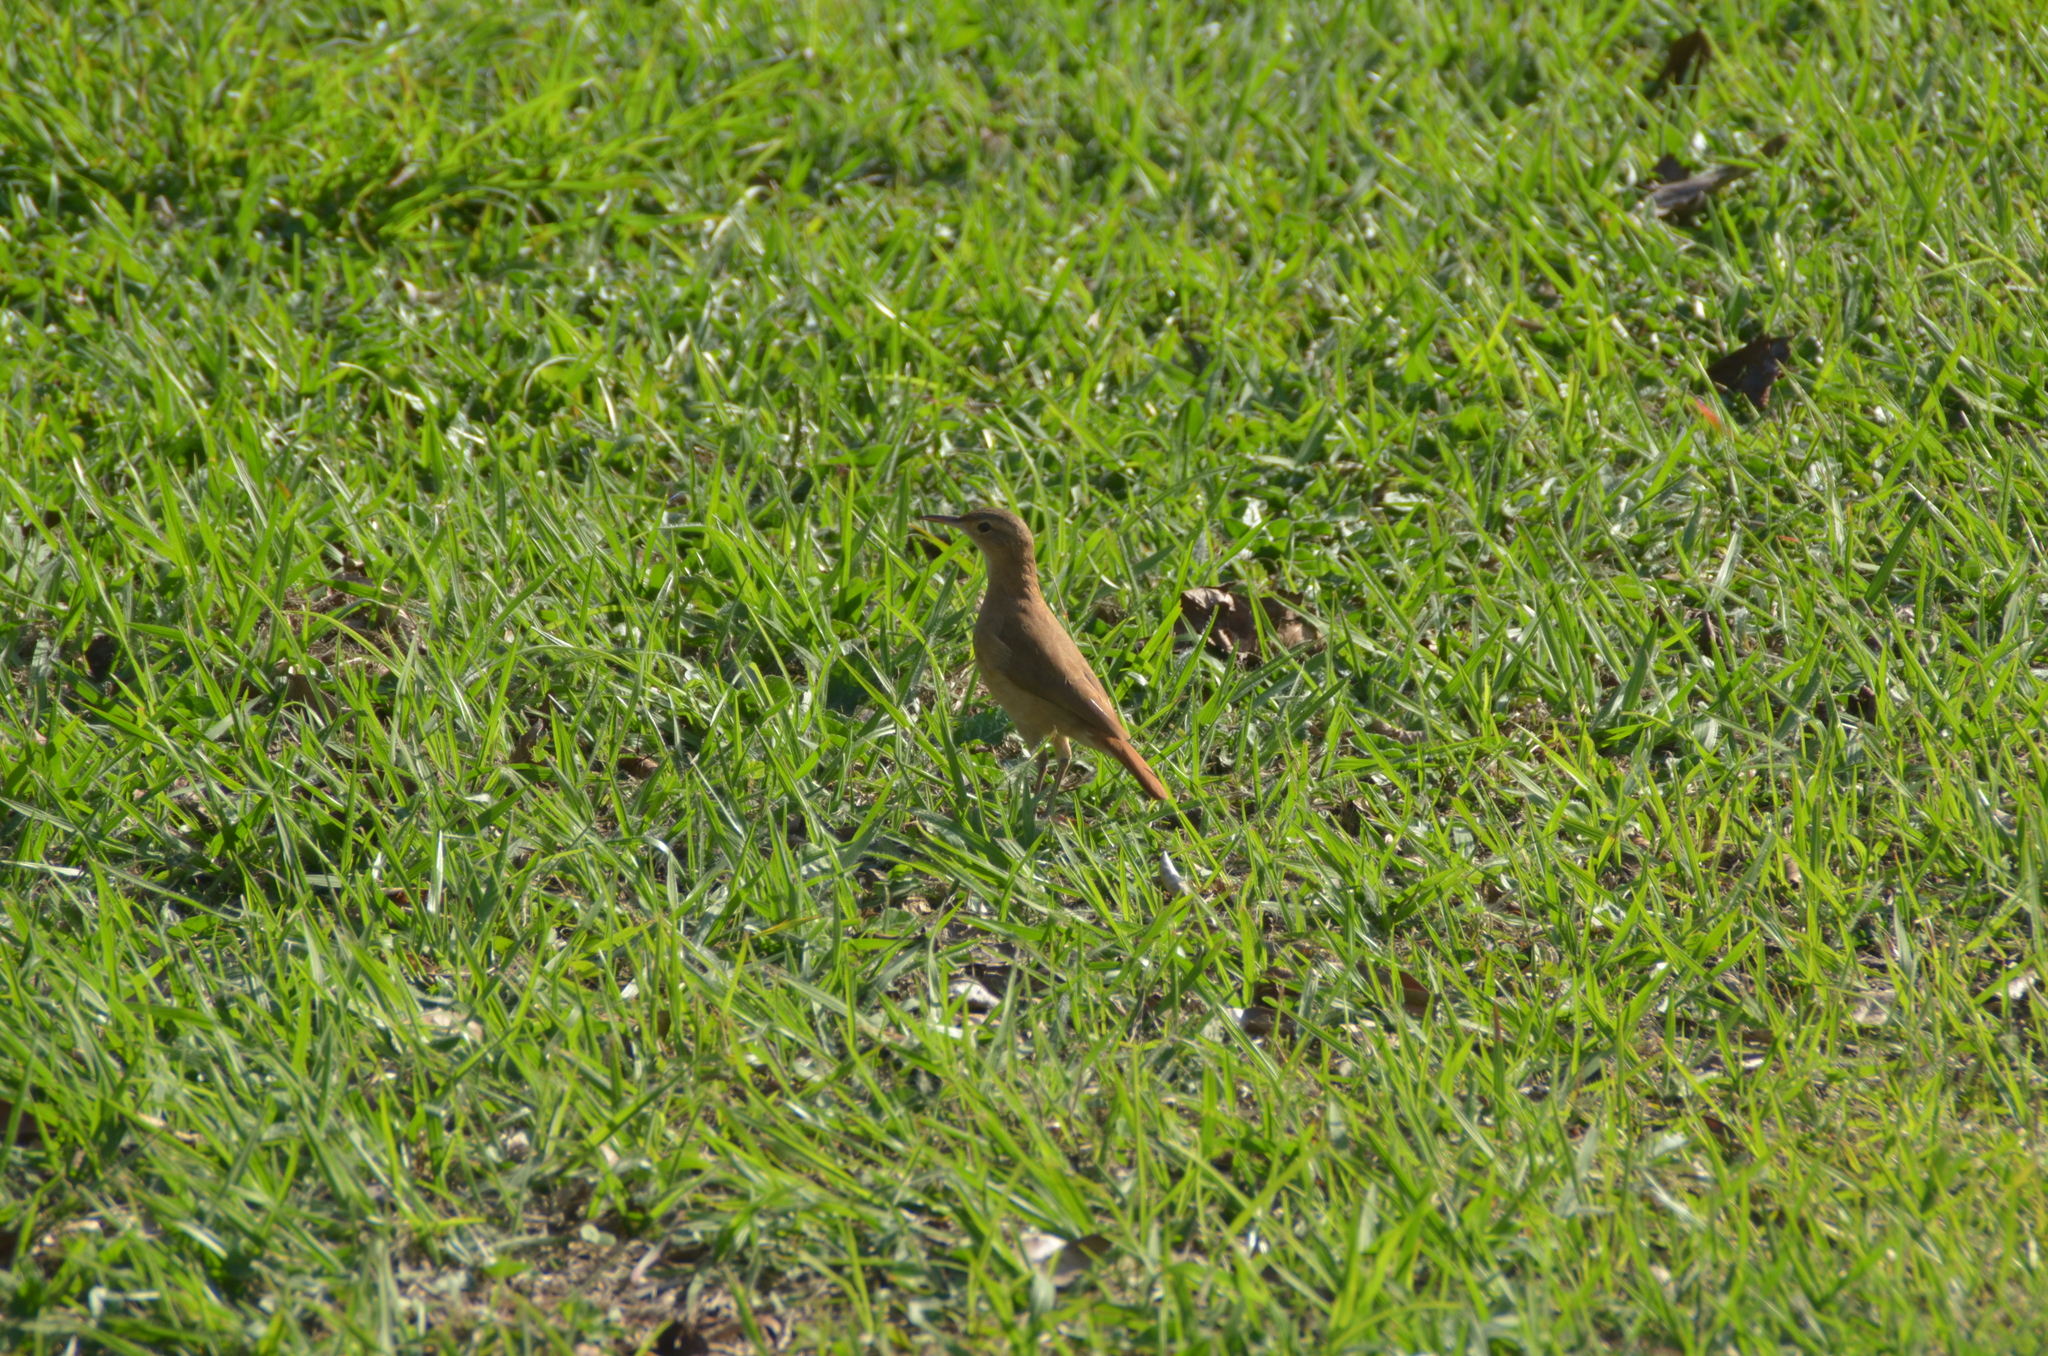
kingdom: Animalia
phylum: Chordata
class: Aves
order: Passeriformes
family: Furnariidae
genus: Furnarius
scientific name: Furnarius rufus
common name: Rufous hornero
